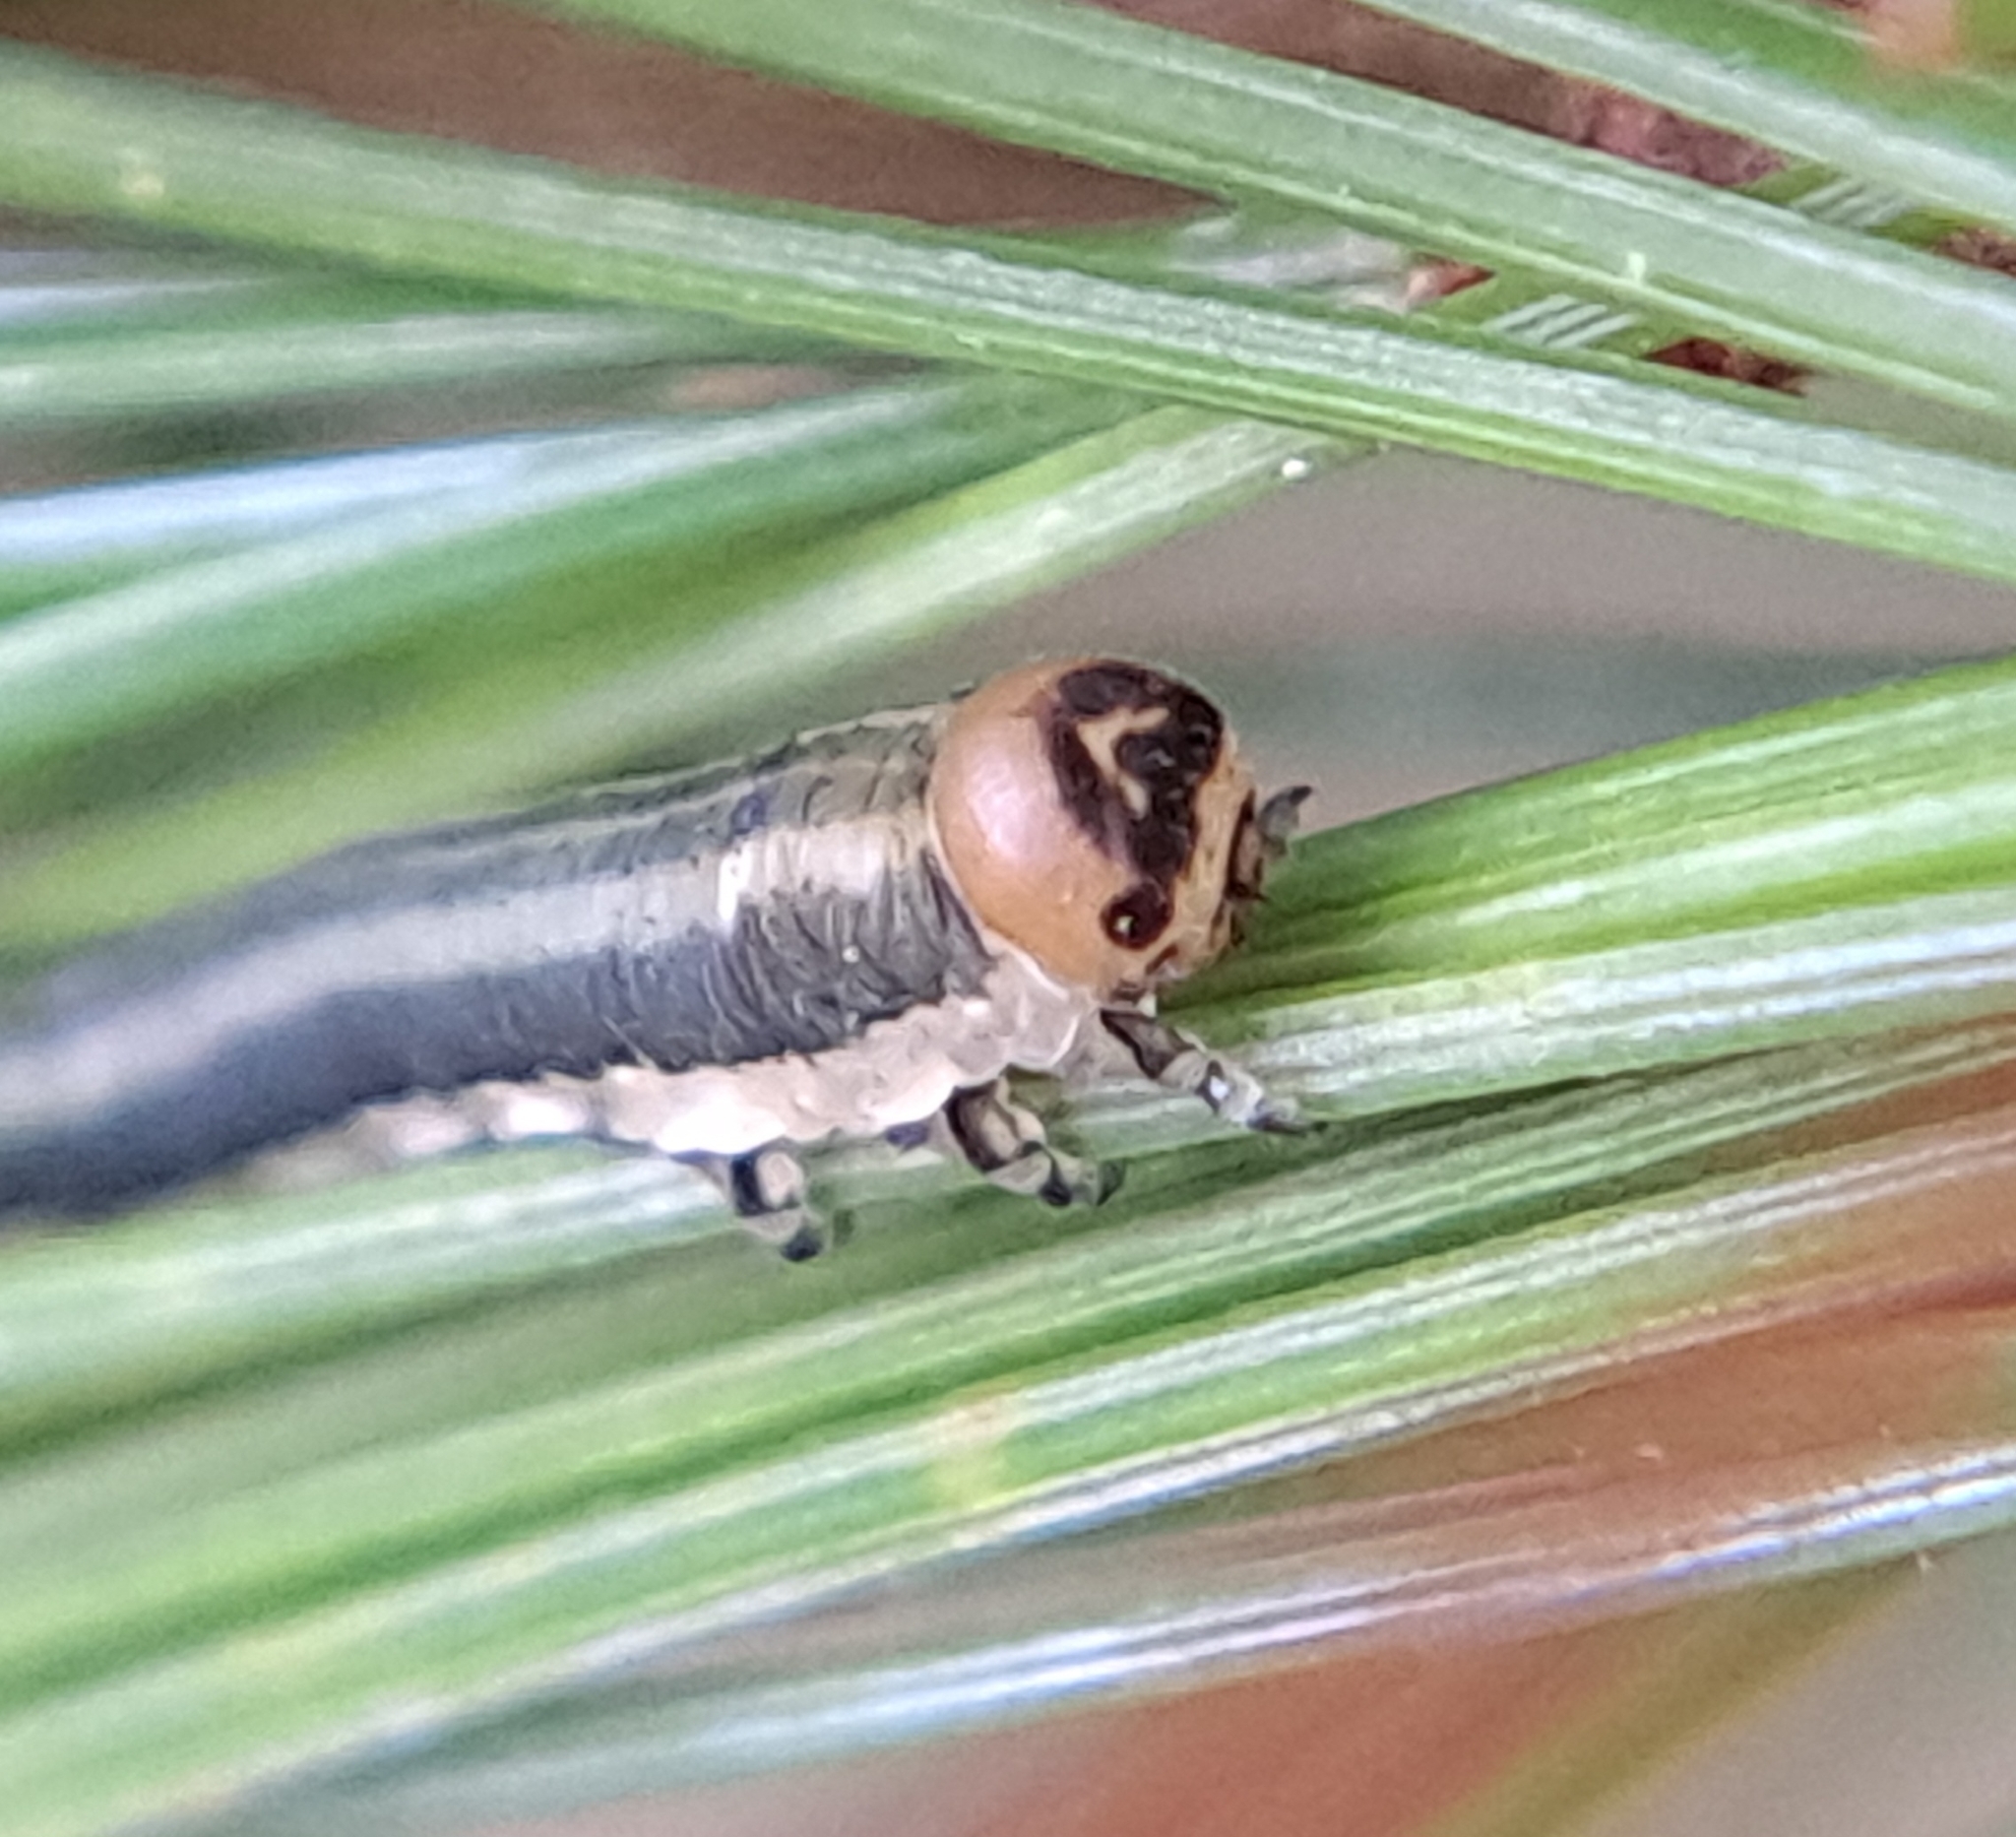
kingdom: Animalia
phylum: Arthropoda
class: Insecta
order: Hymenoptera
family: Diprionidae
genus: Gilpinia
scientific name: Gilpinia frutetorum
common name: Conifer sawfly
